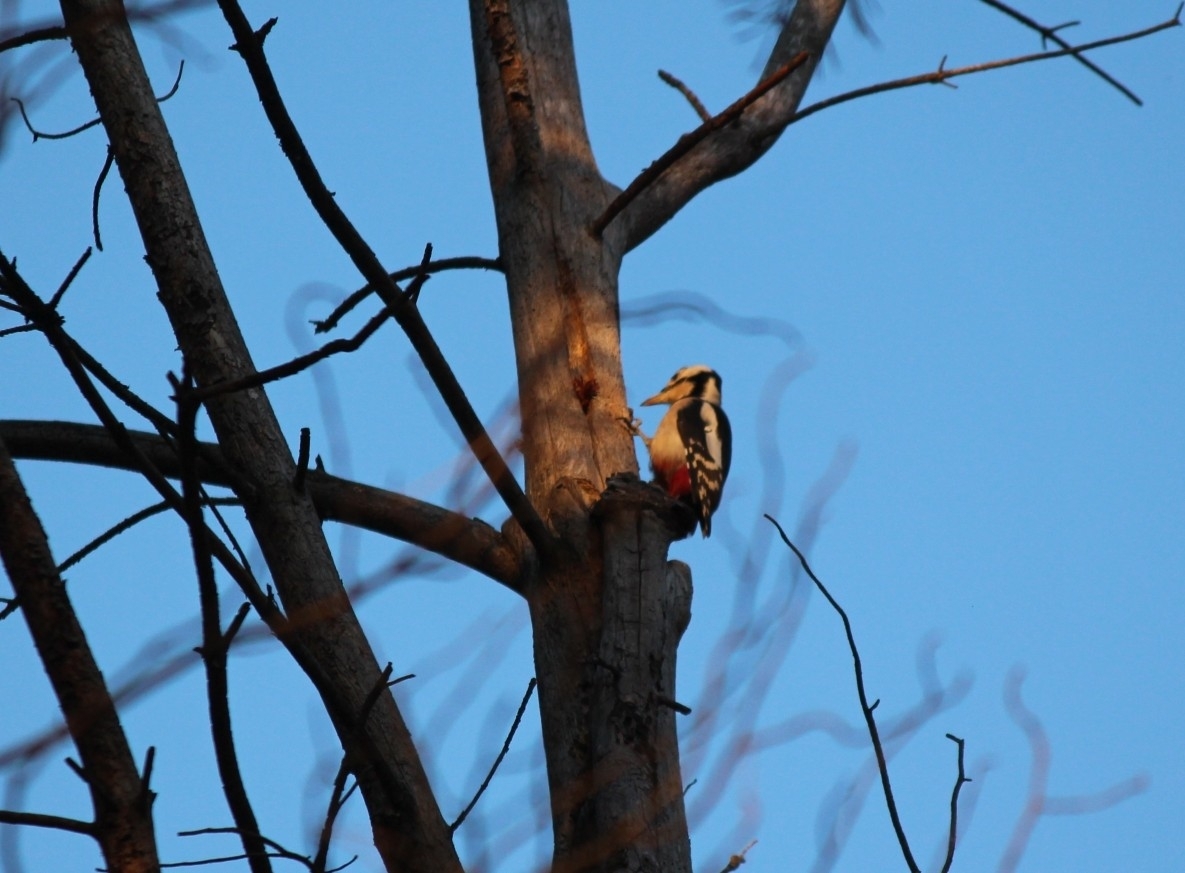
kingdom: Animalia
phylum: Chordata
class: Aves
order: Piciformes
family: Picidae
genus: Dendrocopos
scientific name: Dendrocopos major
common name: Great spotted woodpecker
